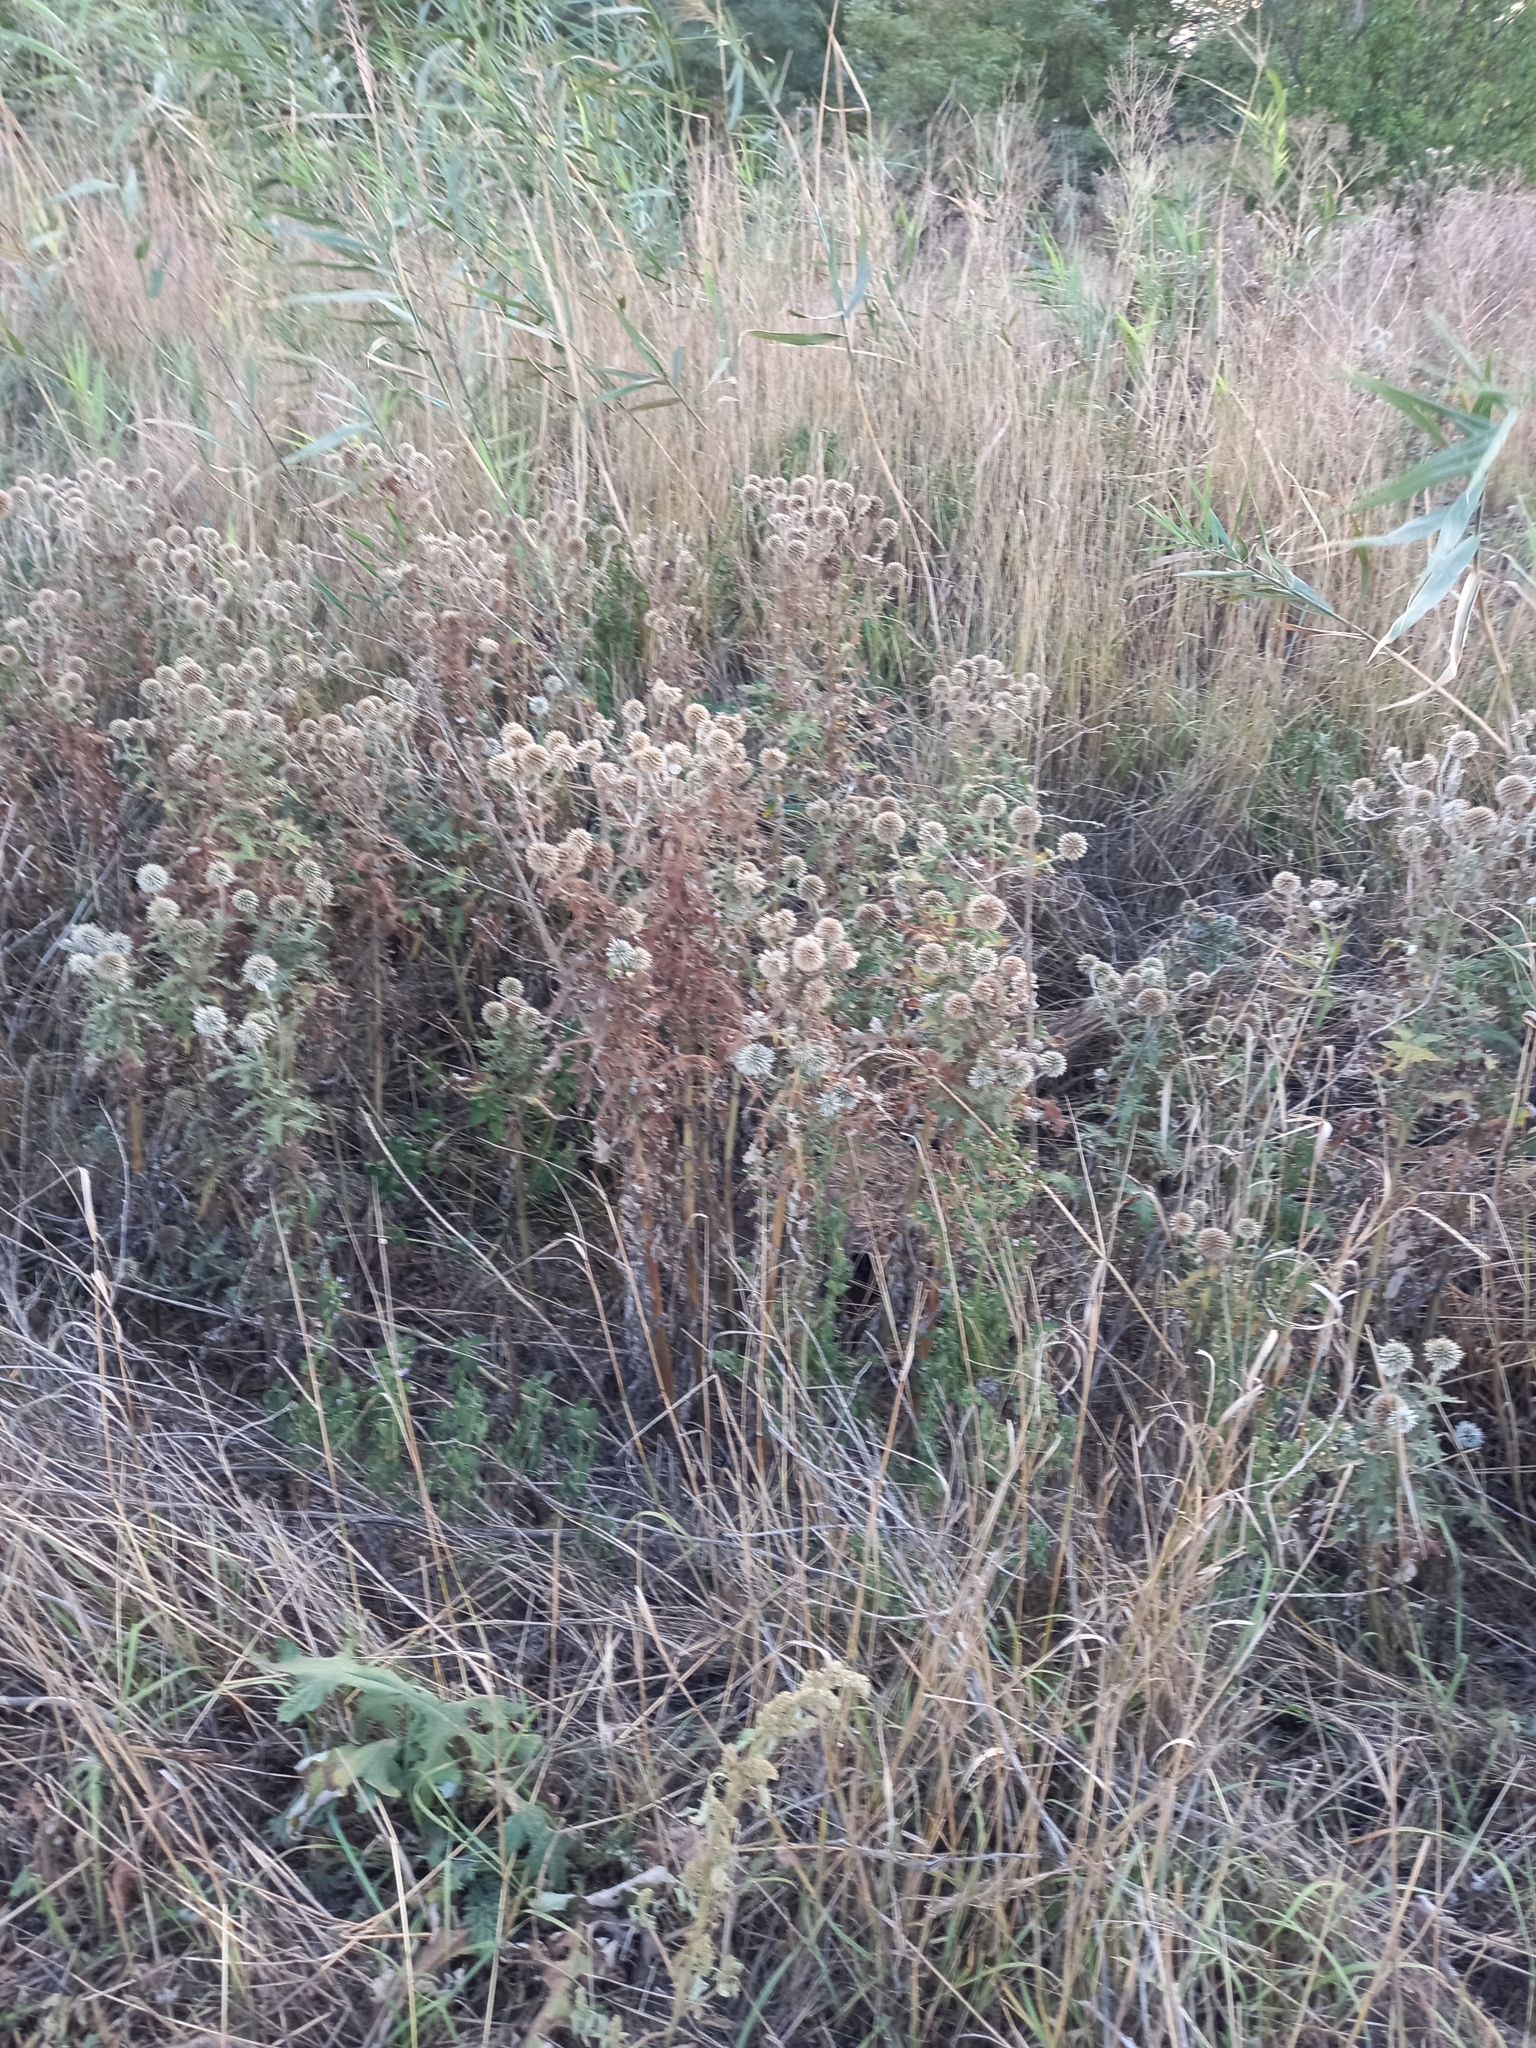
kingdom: Plantae
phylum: Tracheophyta
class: Magnoliopsida
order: Asterales
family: Asteraceae
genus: Echinops
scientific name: Echinops sphaerocephalus
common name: Glandular globe-thistle
